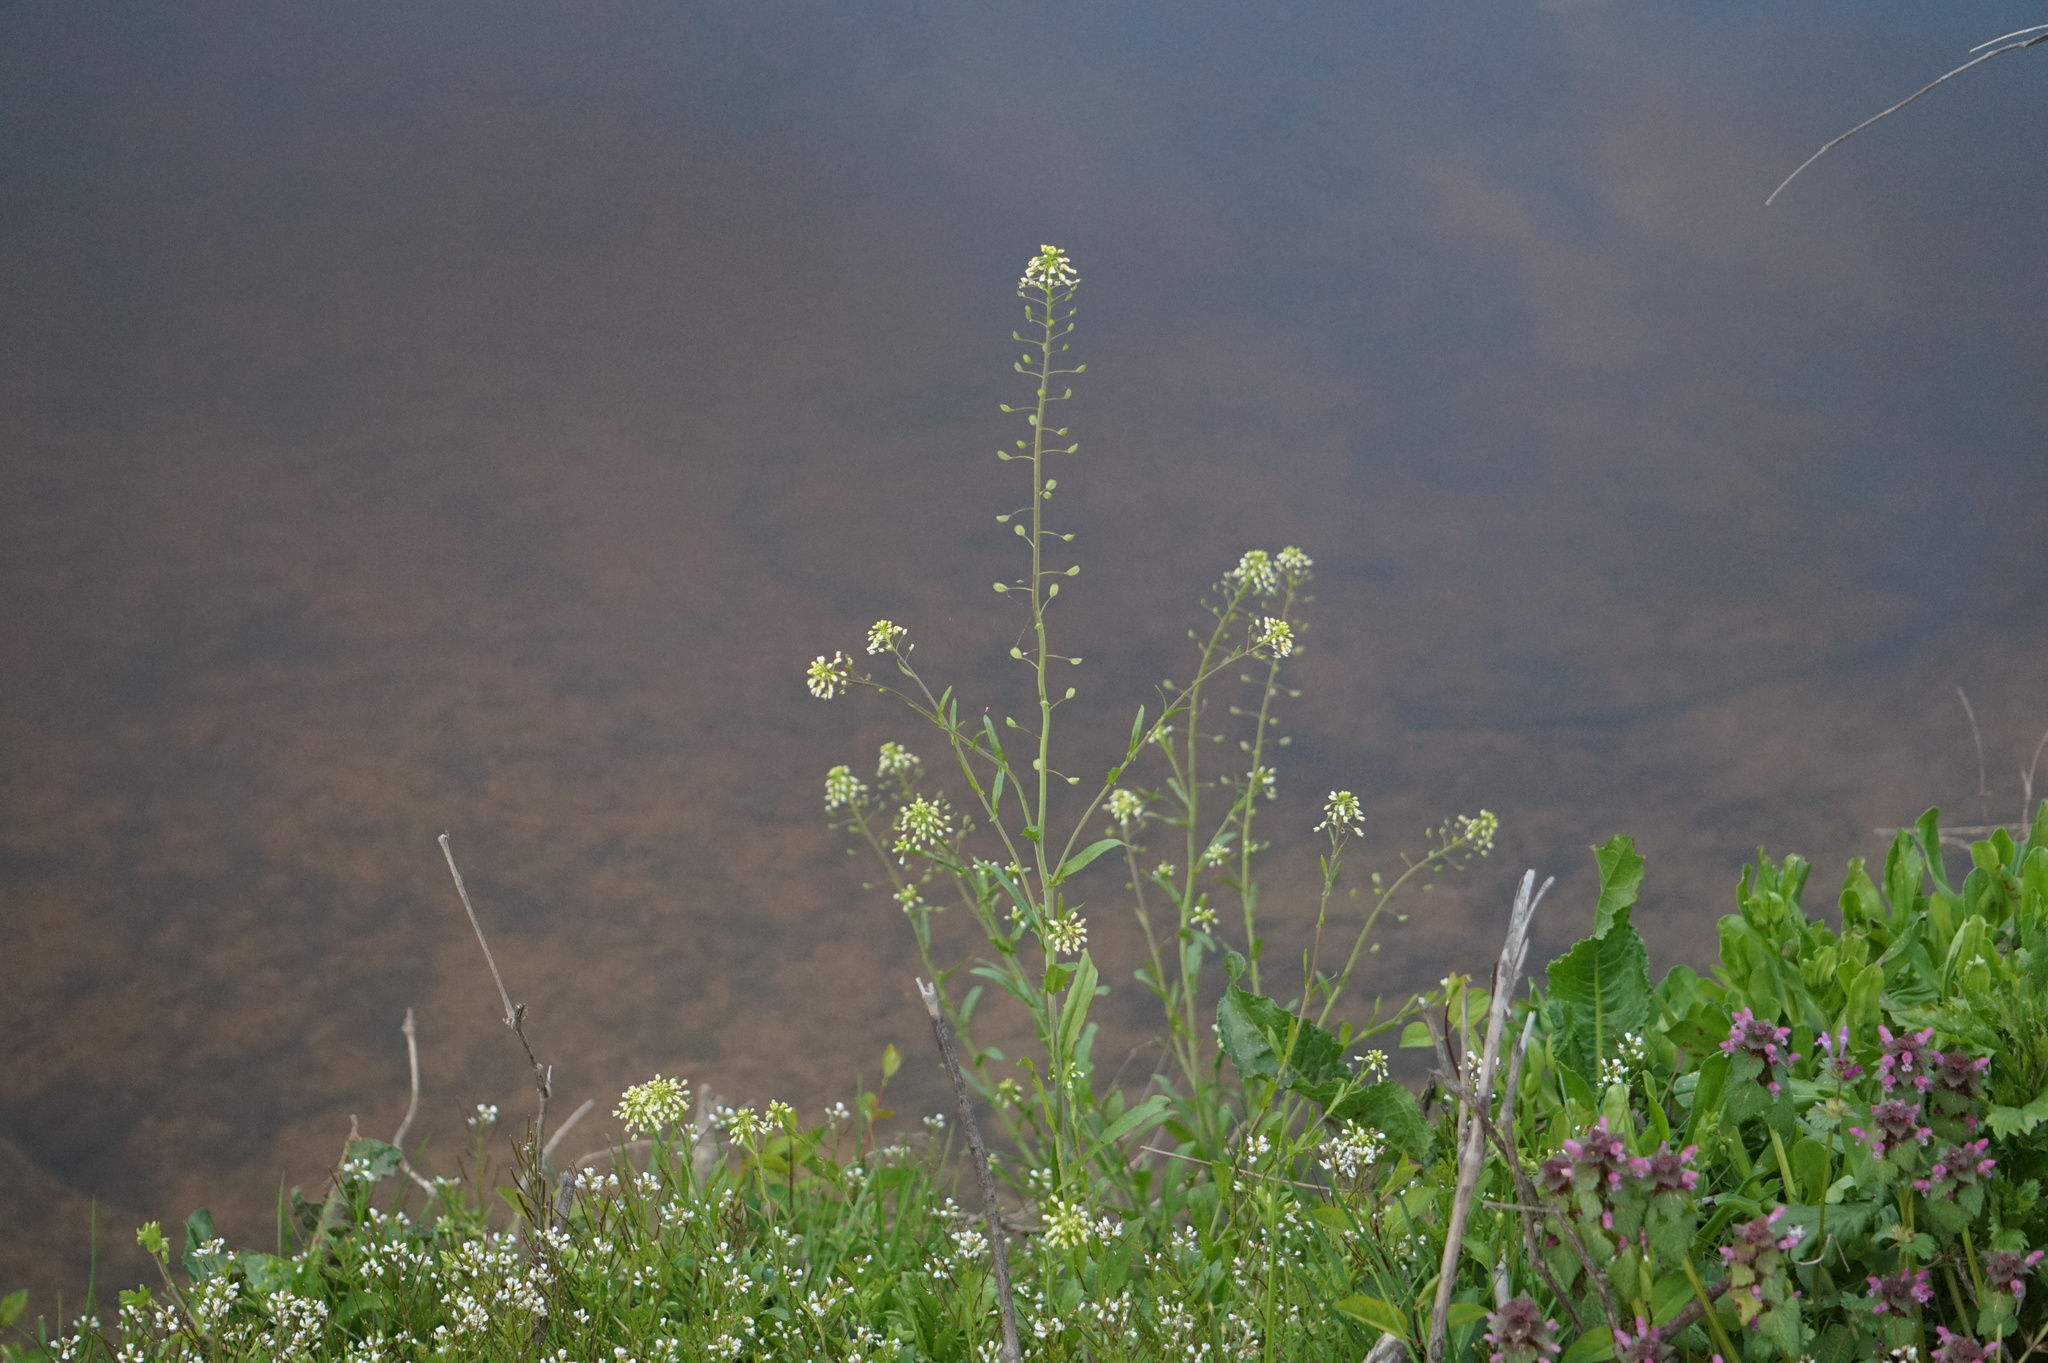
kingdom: Plantae
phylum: Tracheophyta
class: Magnoliopsida
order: Brassicales
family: Brassicaceae
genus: Mummenhoffia
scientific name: Mummenhoffia alliacea
